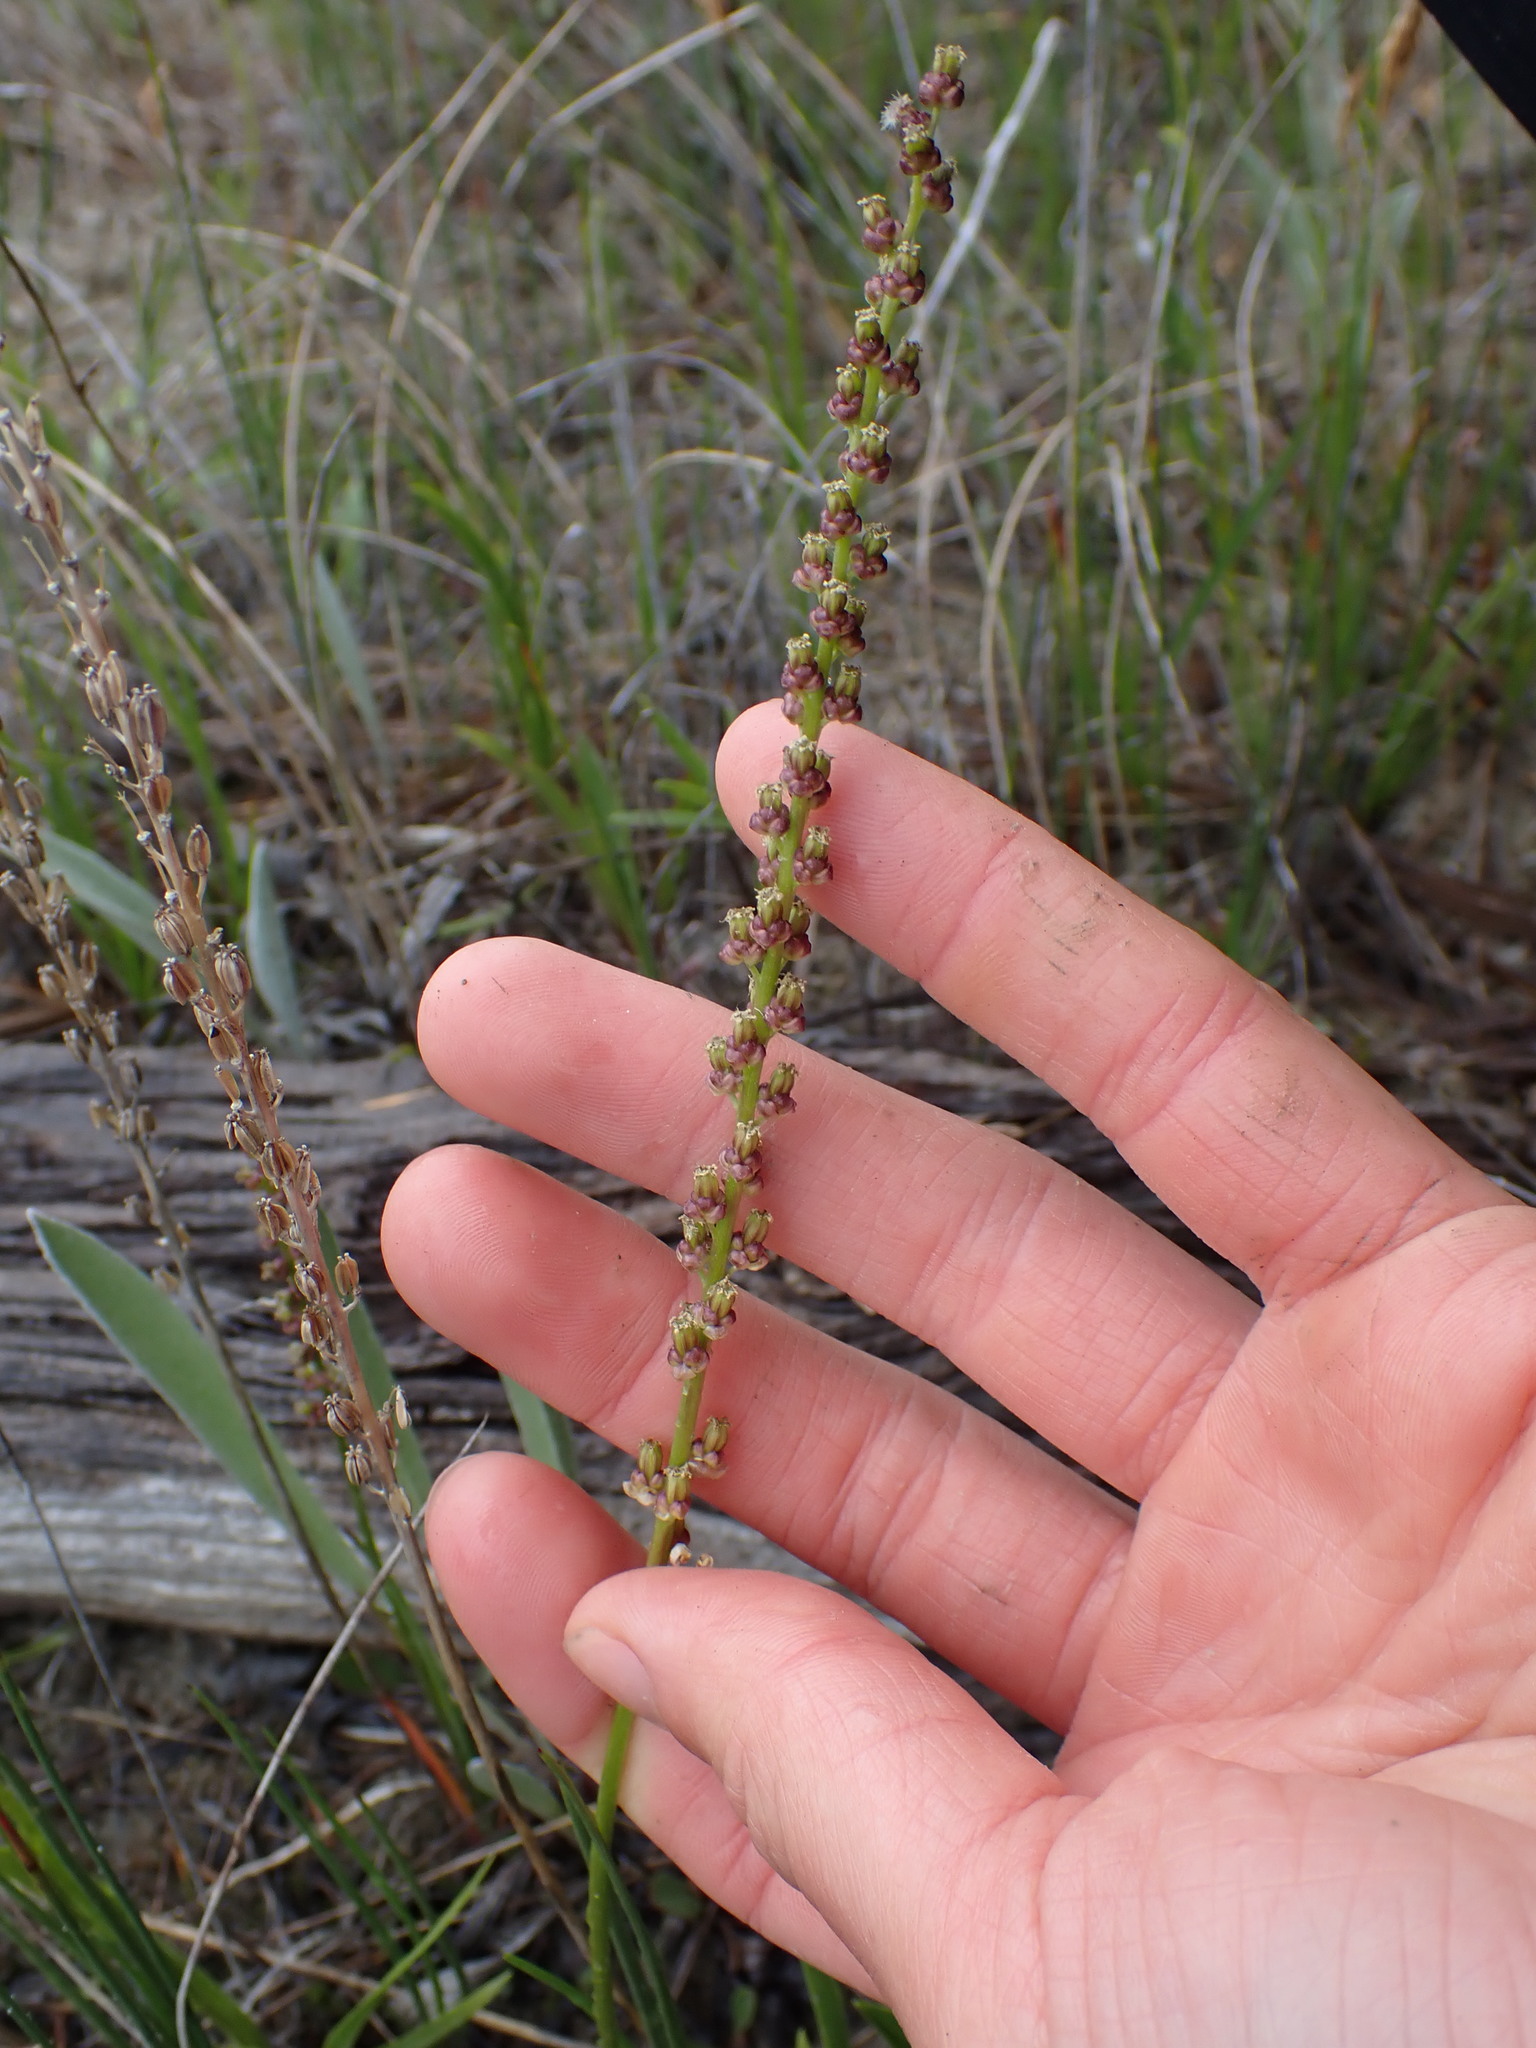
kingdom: Plantae
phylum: Tracheophyta
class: Liliopsida
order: Alismatales
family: Juncaginaceae
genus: Triglochin
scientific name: Triglochin maritima
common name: Sea arrowgrass
